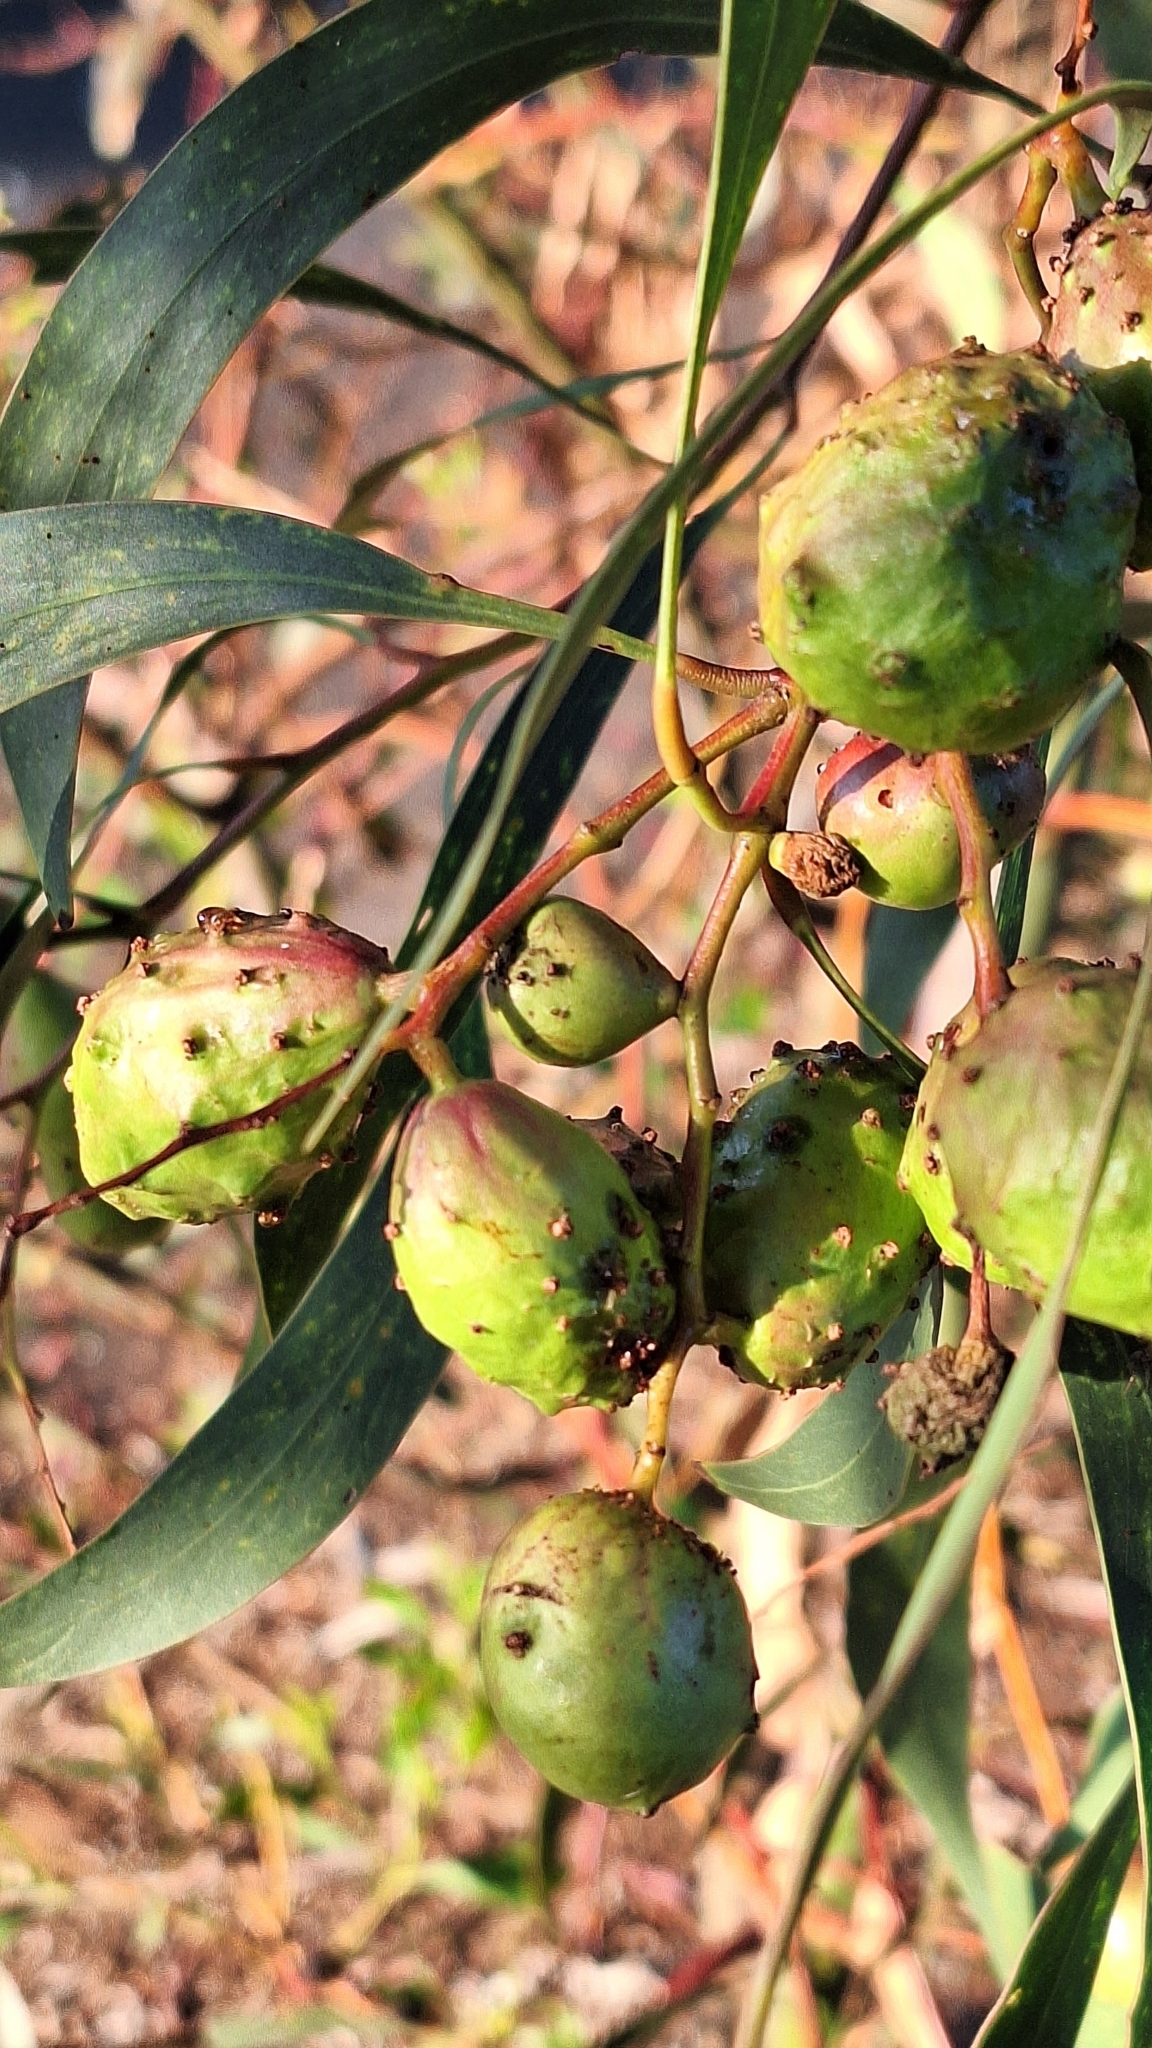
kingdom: Animalia
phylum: Arthropoda
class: Insecta
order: Hymenoptera
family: Pteromalidae
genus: Trichilogaster
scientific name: Trichilogaster signiventris
